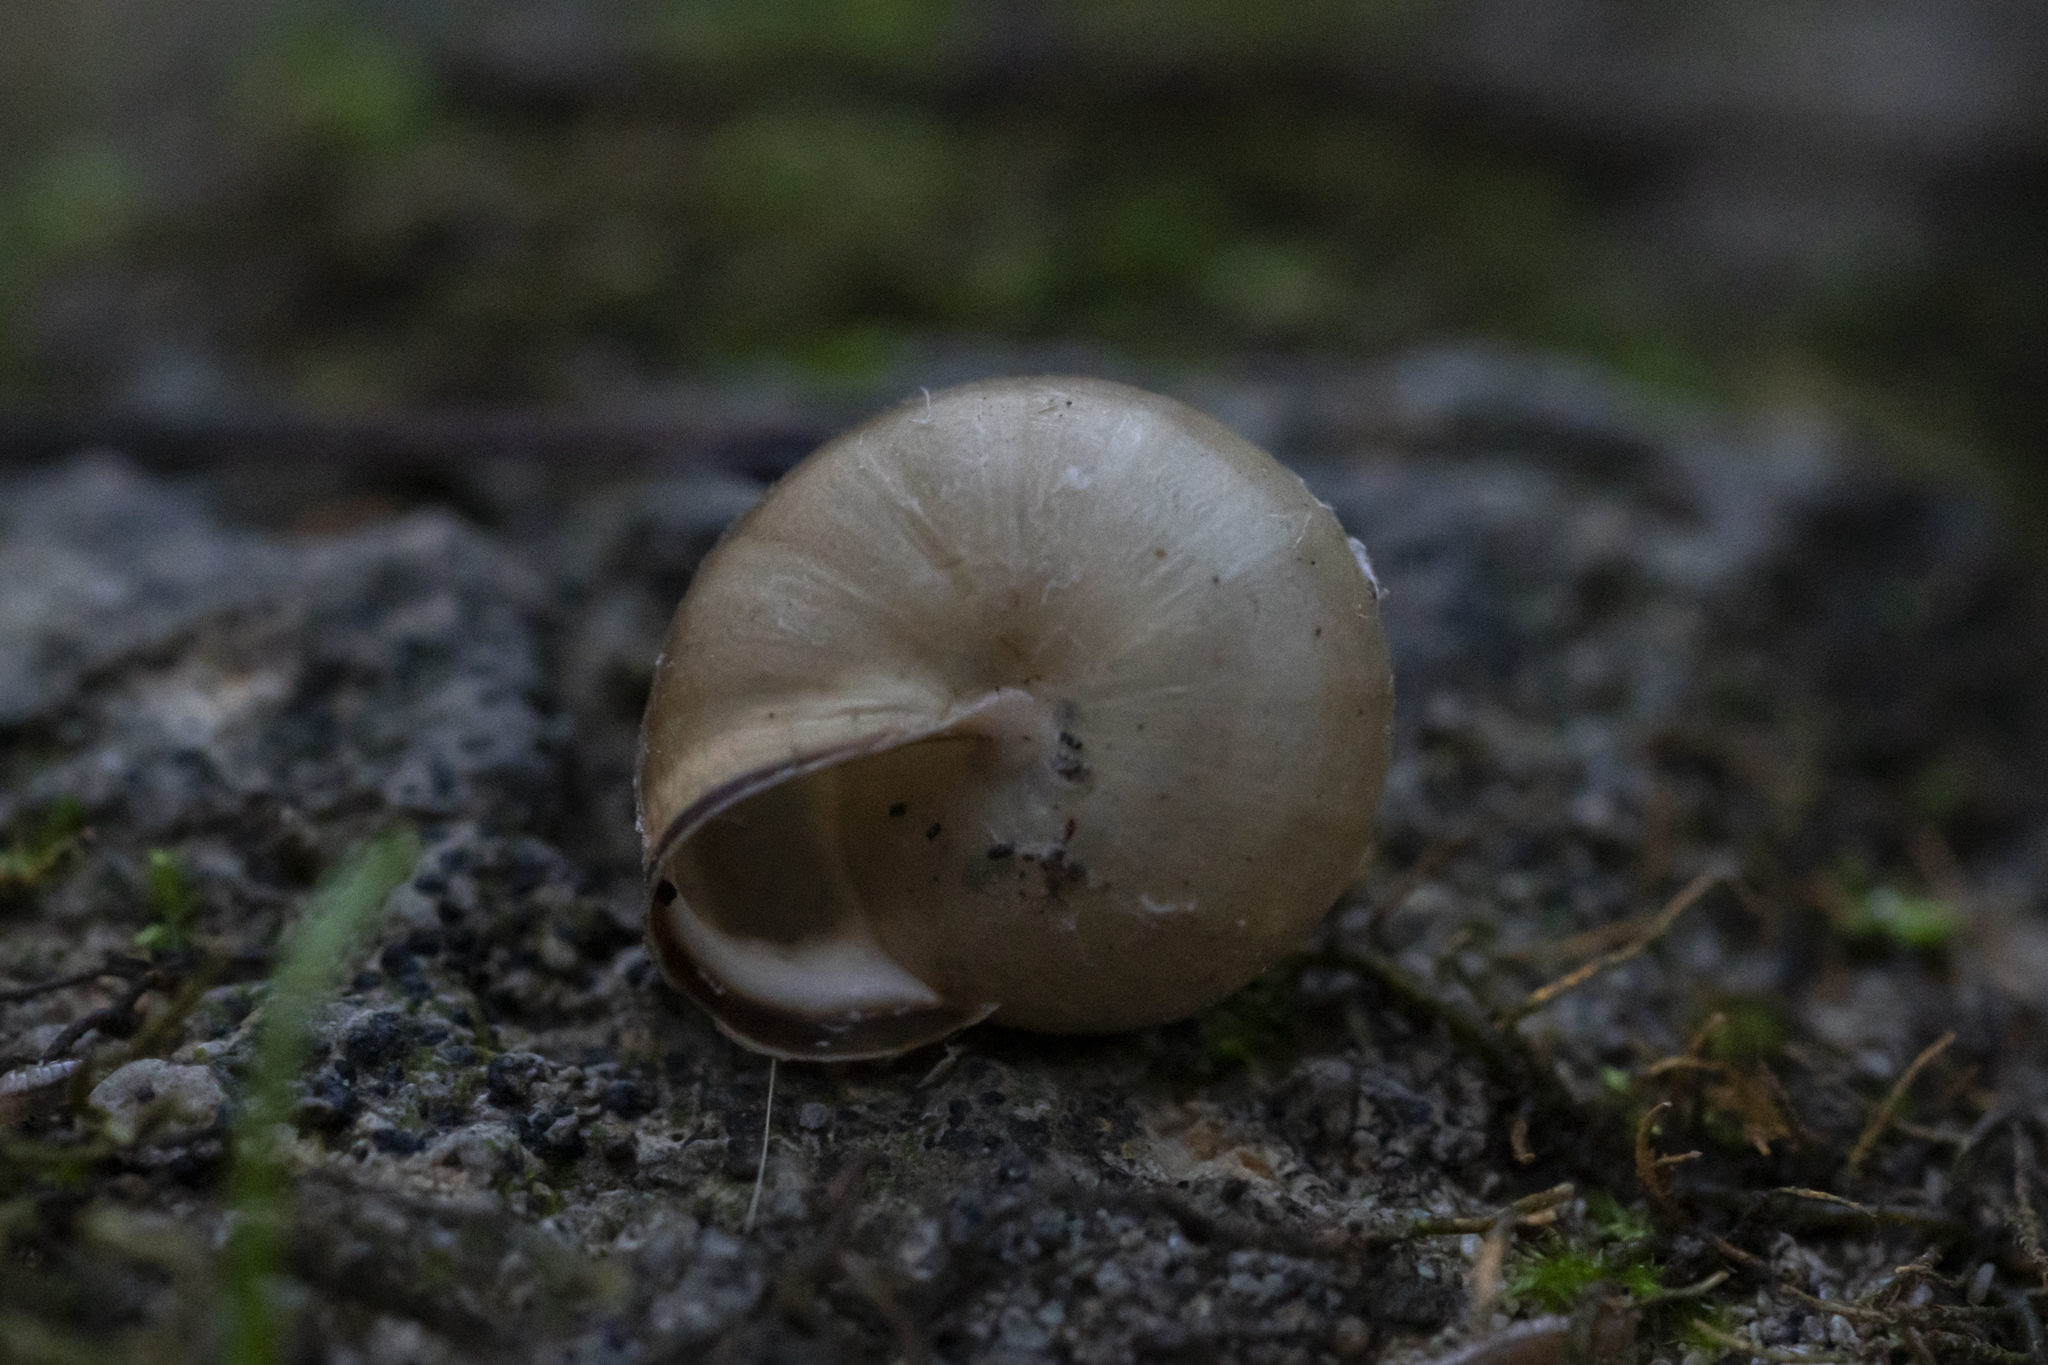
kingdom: Animalia
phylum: Mollusca
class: Gastropoda
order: Stylommatophora
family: Hygromiidae
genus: Monacha
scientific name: Monacha syriaca
